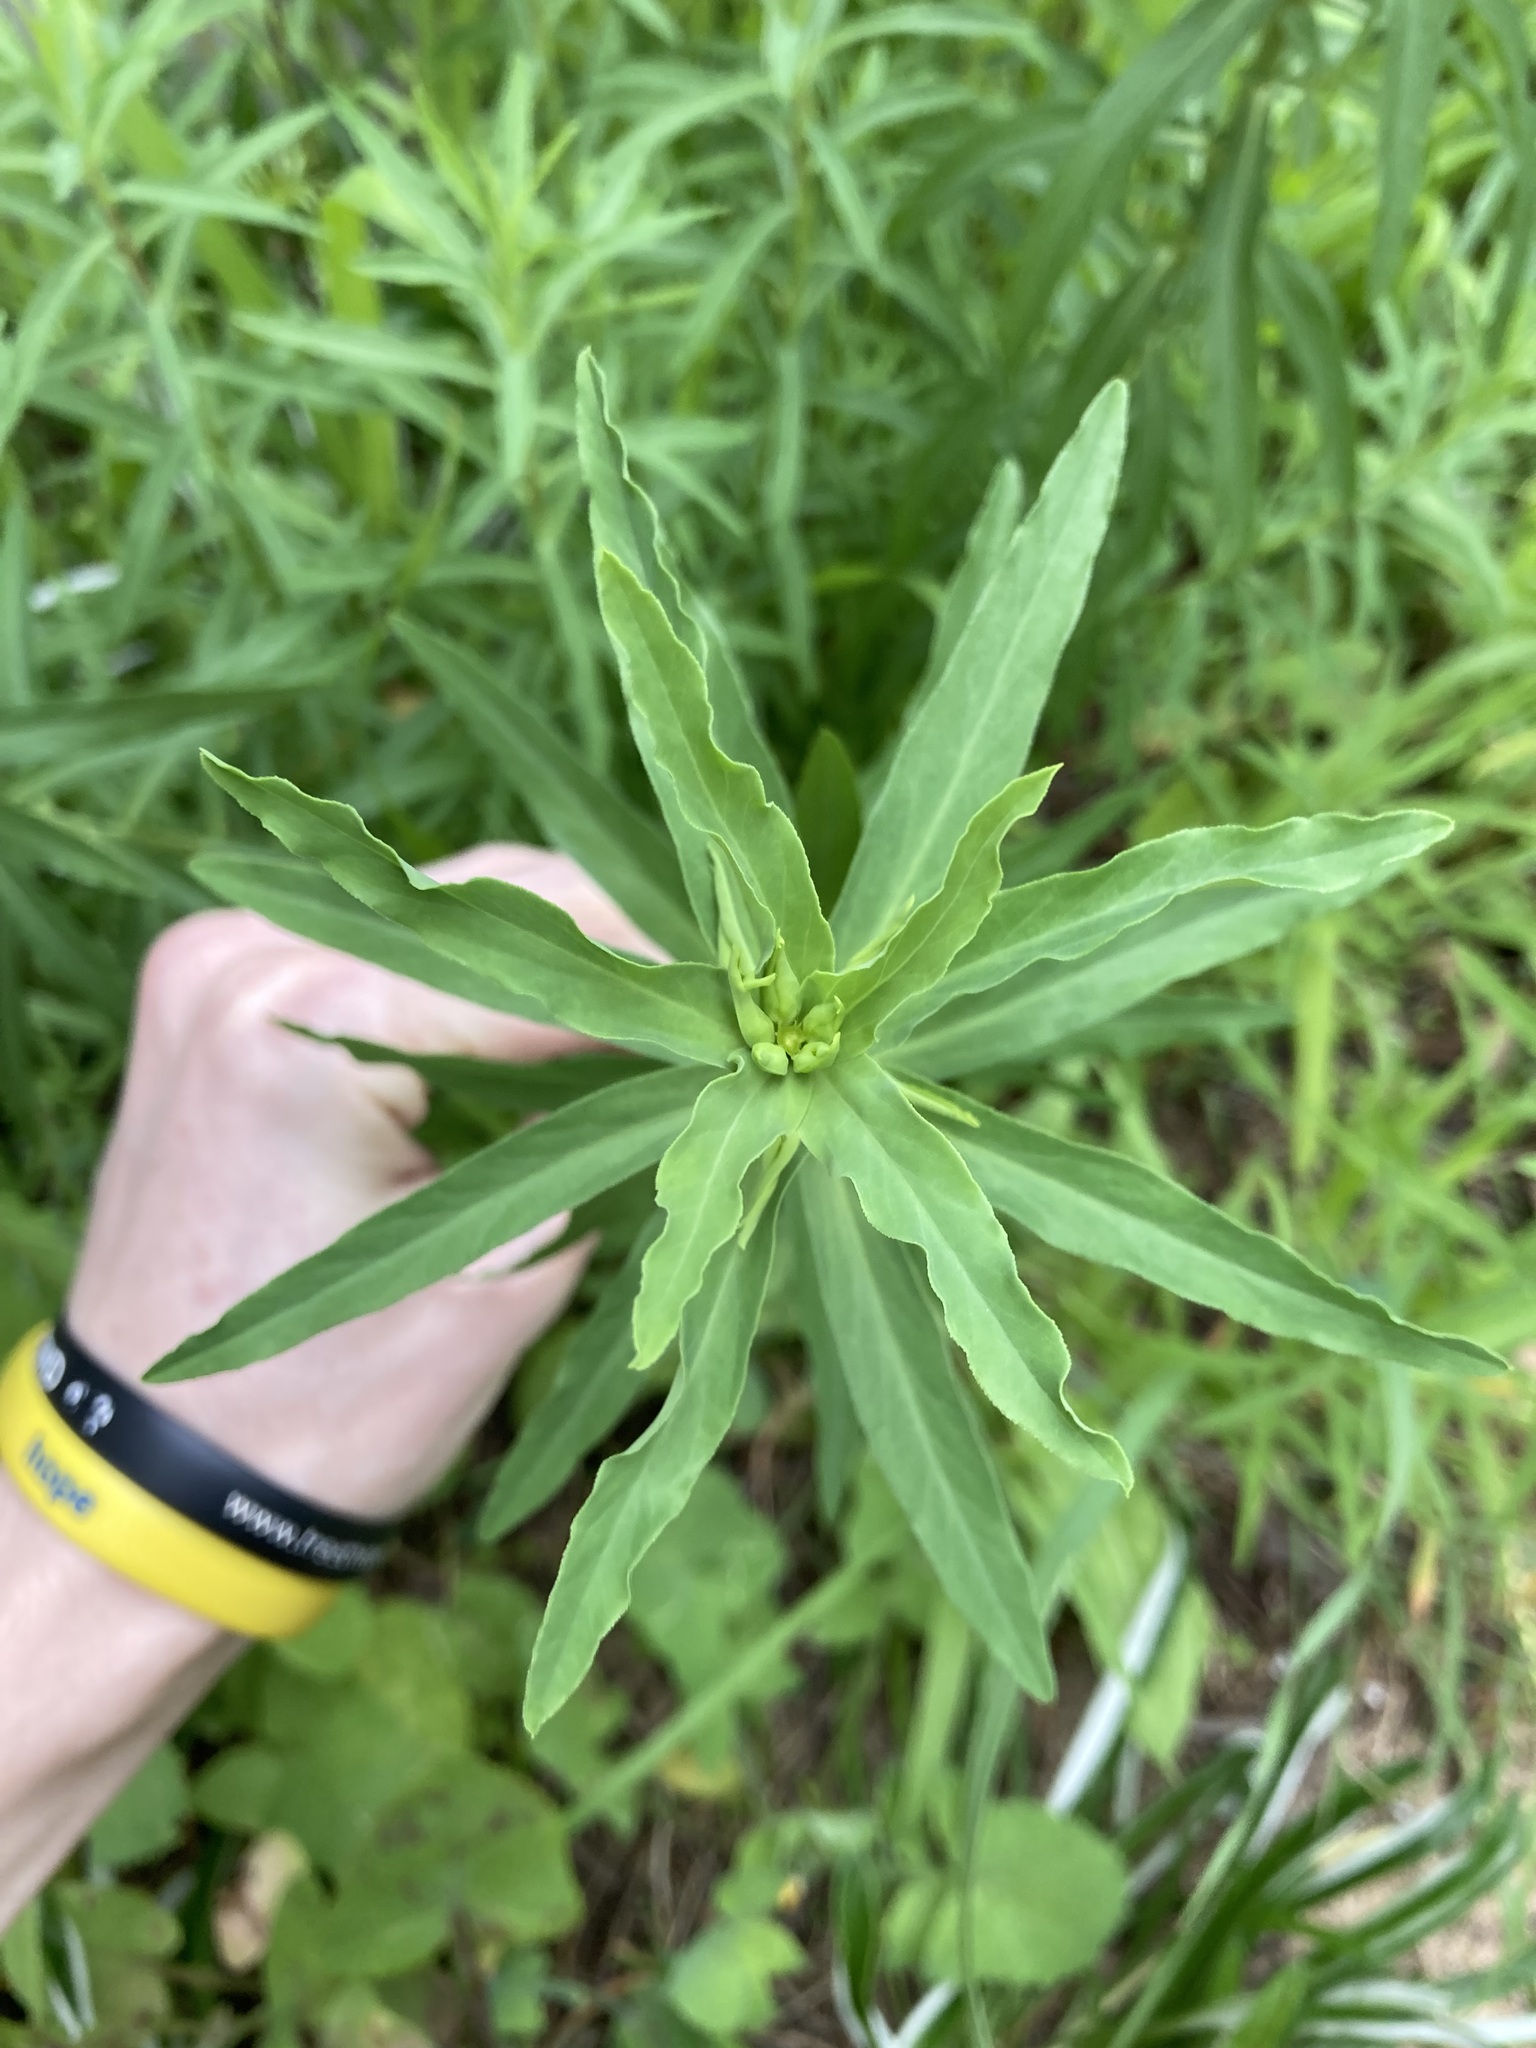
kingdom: Plantae
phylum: Tracheophyta
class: Magnoliopsida
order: Malpighiales
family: Euphorbiaceae
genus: Euphorbia
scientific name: Euphorbia terracina
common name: Geraldton carnation weed
